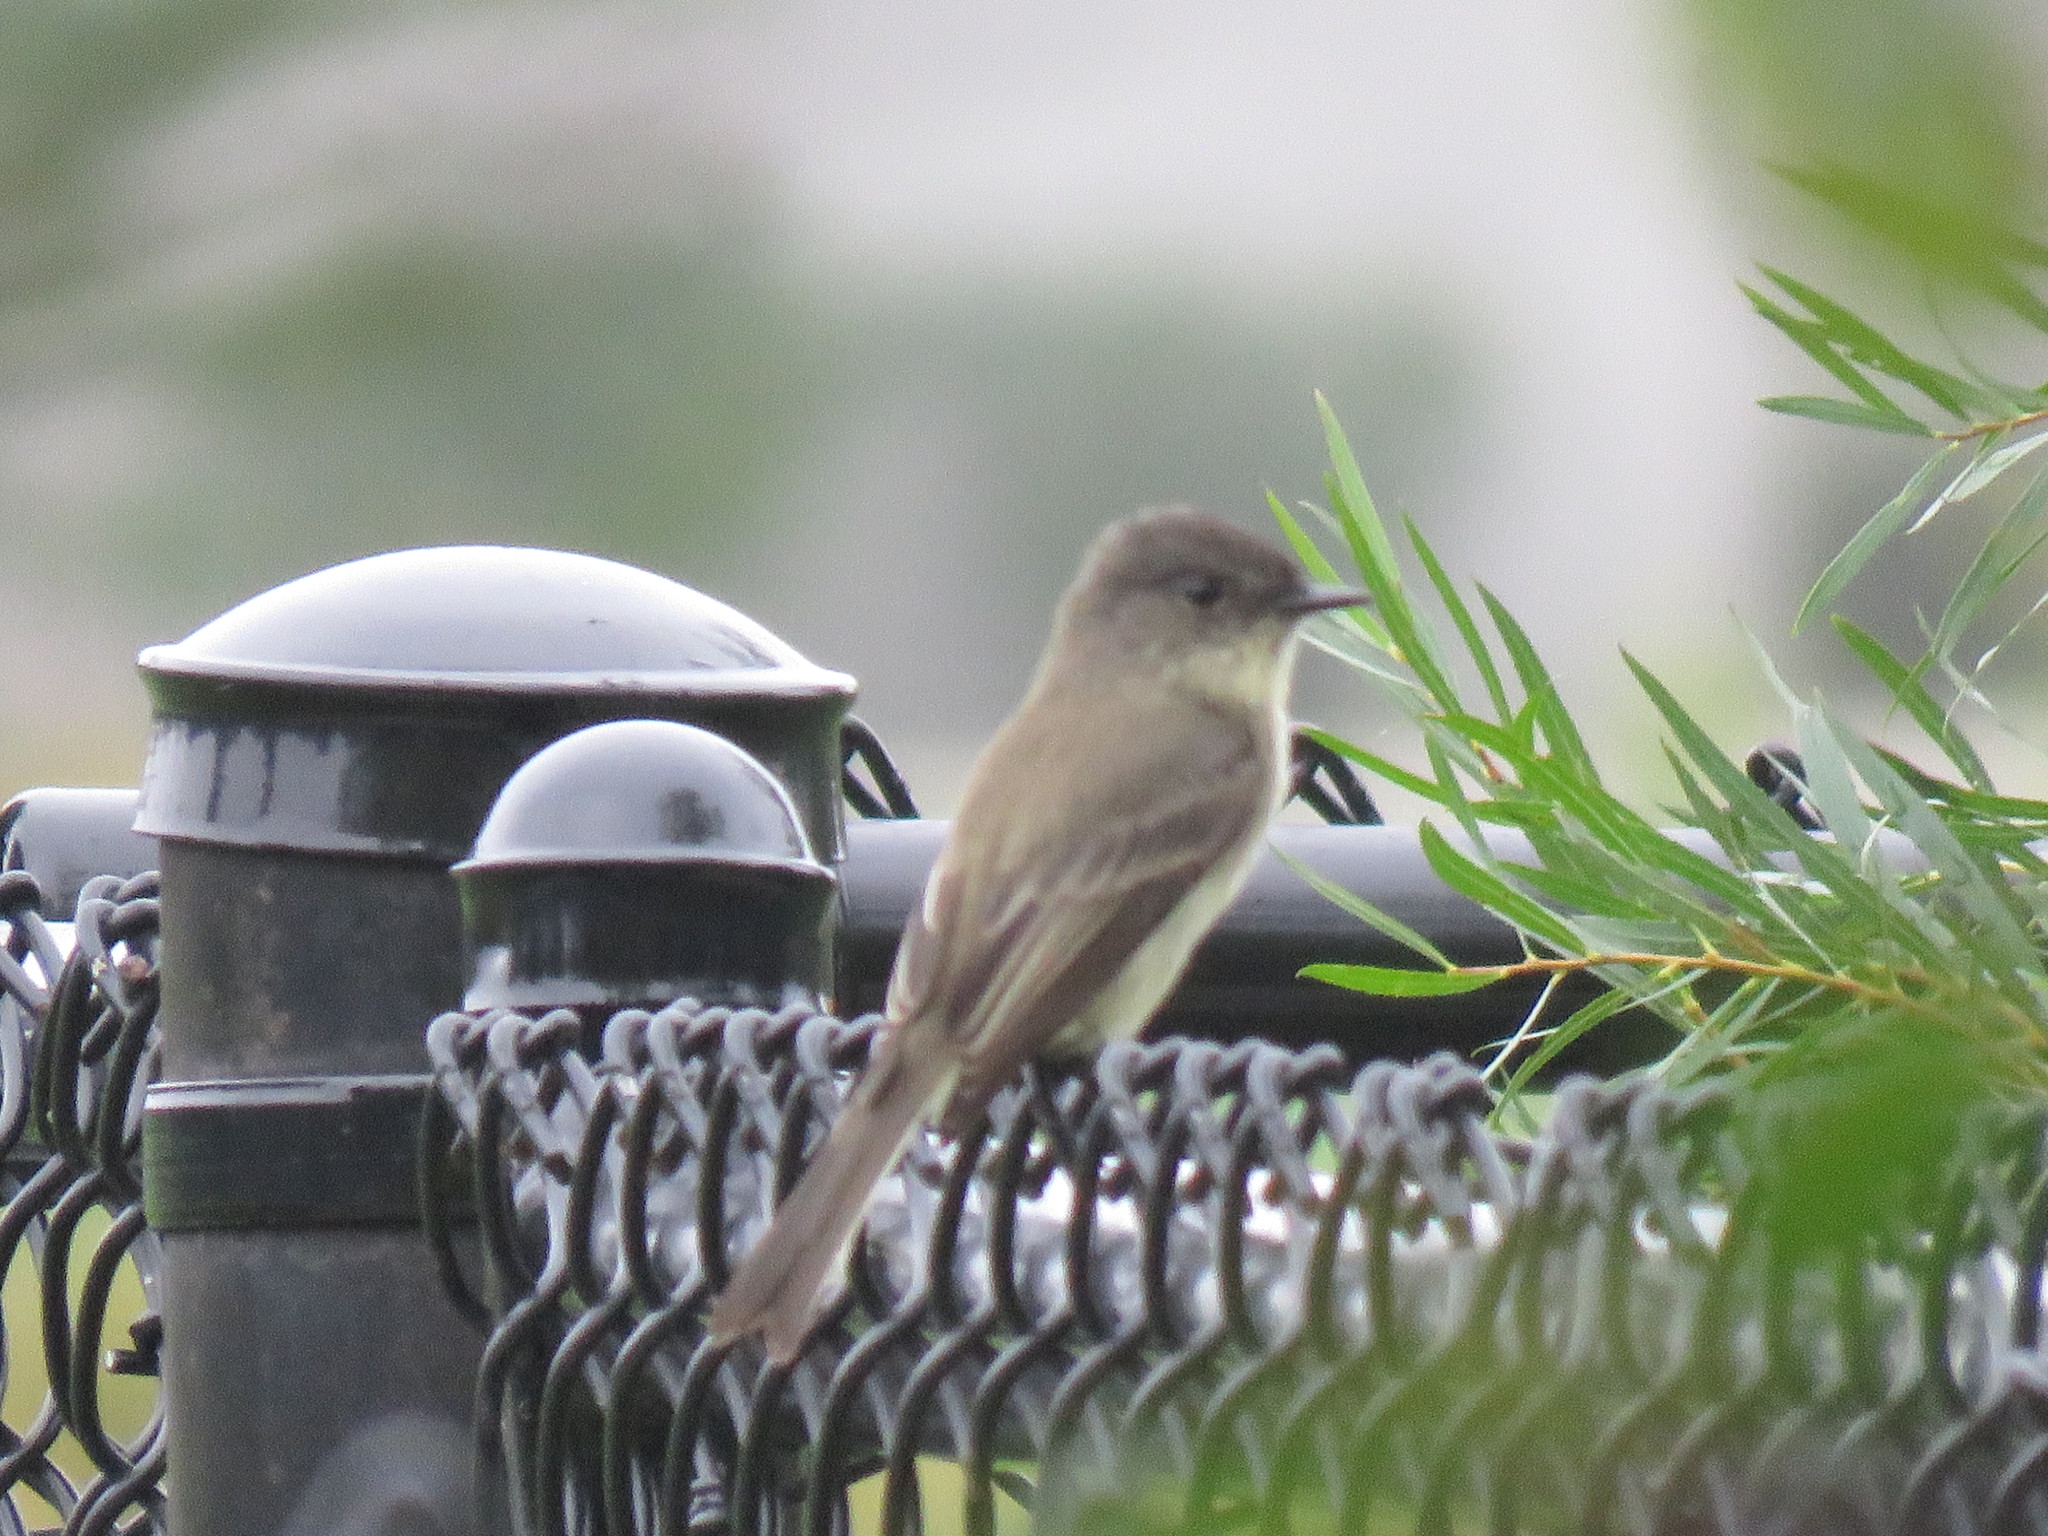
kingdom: Animalia
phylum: Chordata
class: Aves
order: Passeriformes
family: Tyrannidae
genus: Sayornis
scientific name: Sayornis phoebe
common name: Eastern phoebe
